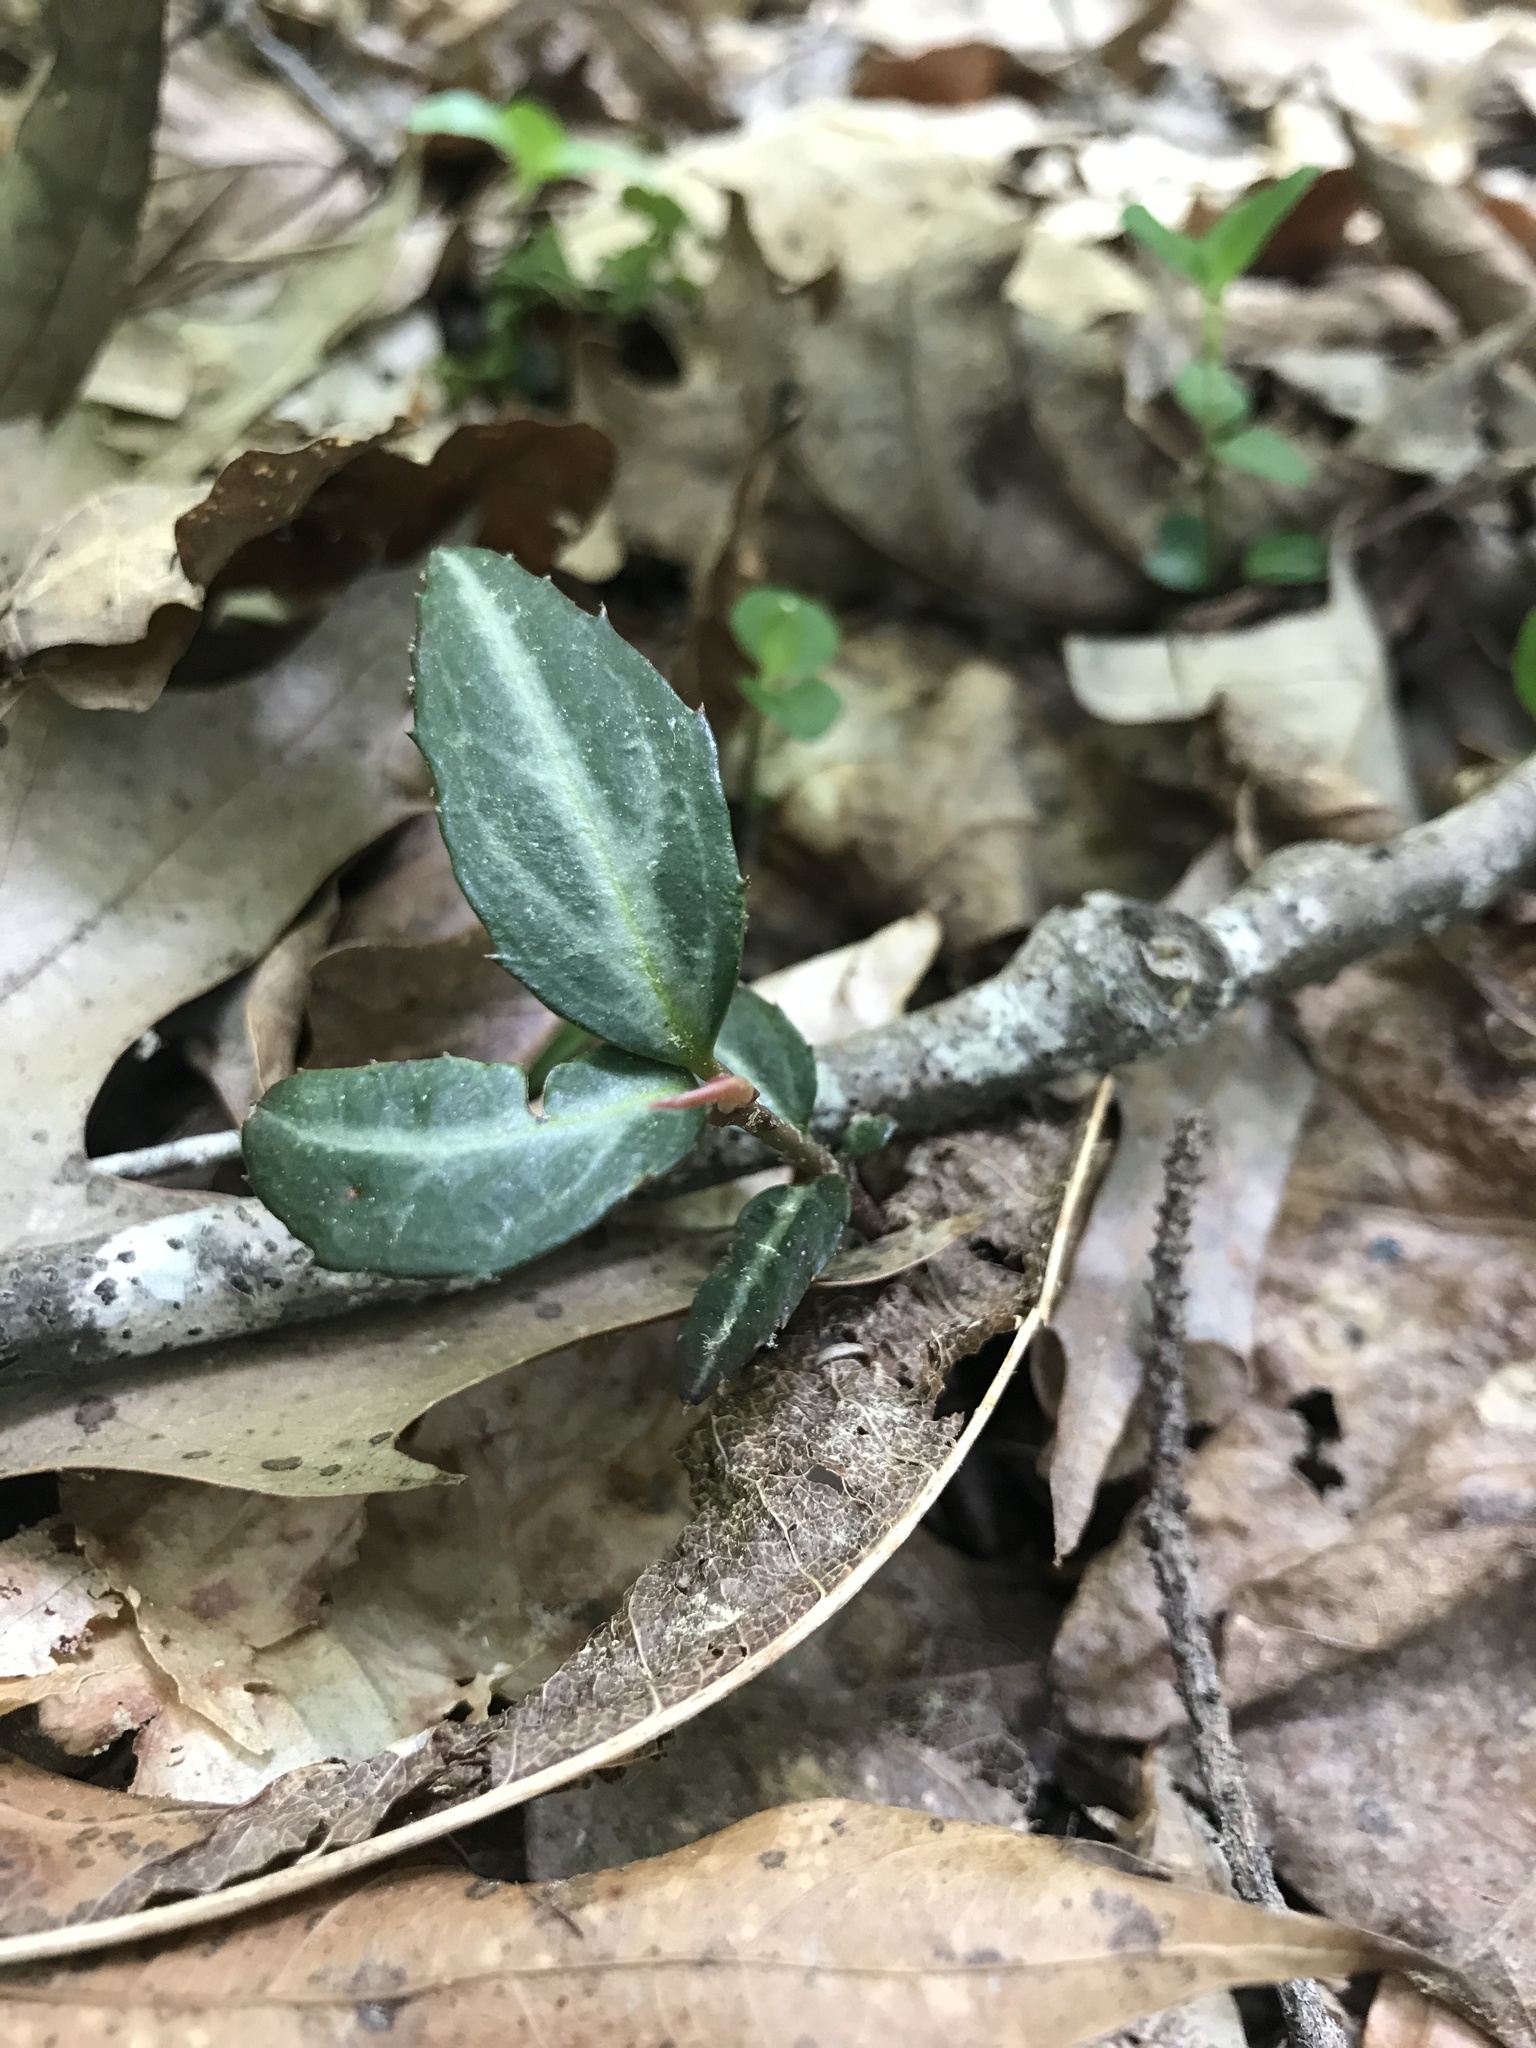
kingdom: Plantae
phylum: Tracheophyta
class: Magnoliopsida
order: Ericales
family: Ericaceae
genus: Chimaphila
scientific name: Chimaphila maculata
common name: Spotted pipsissewa
